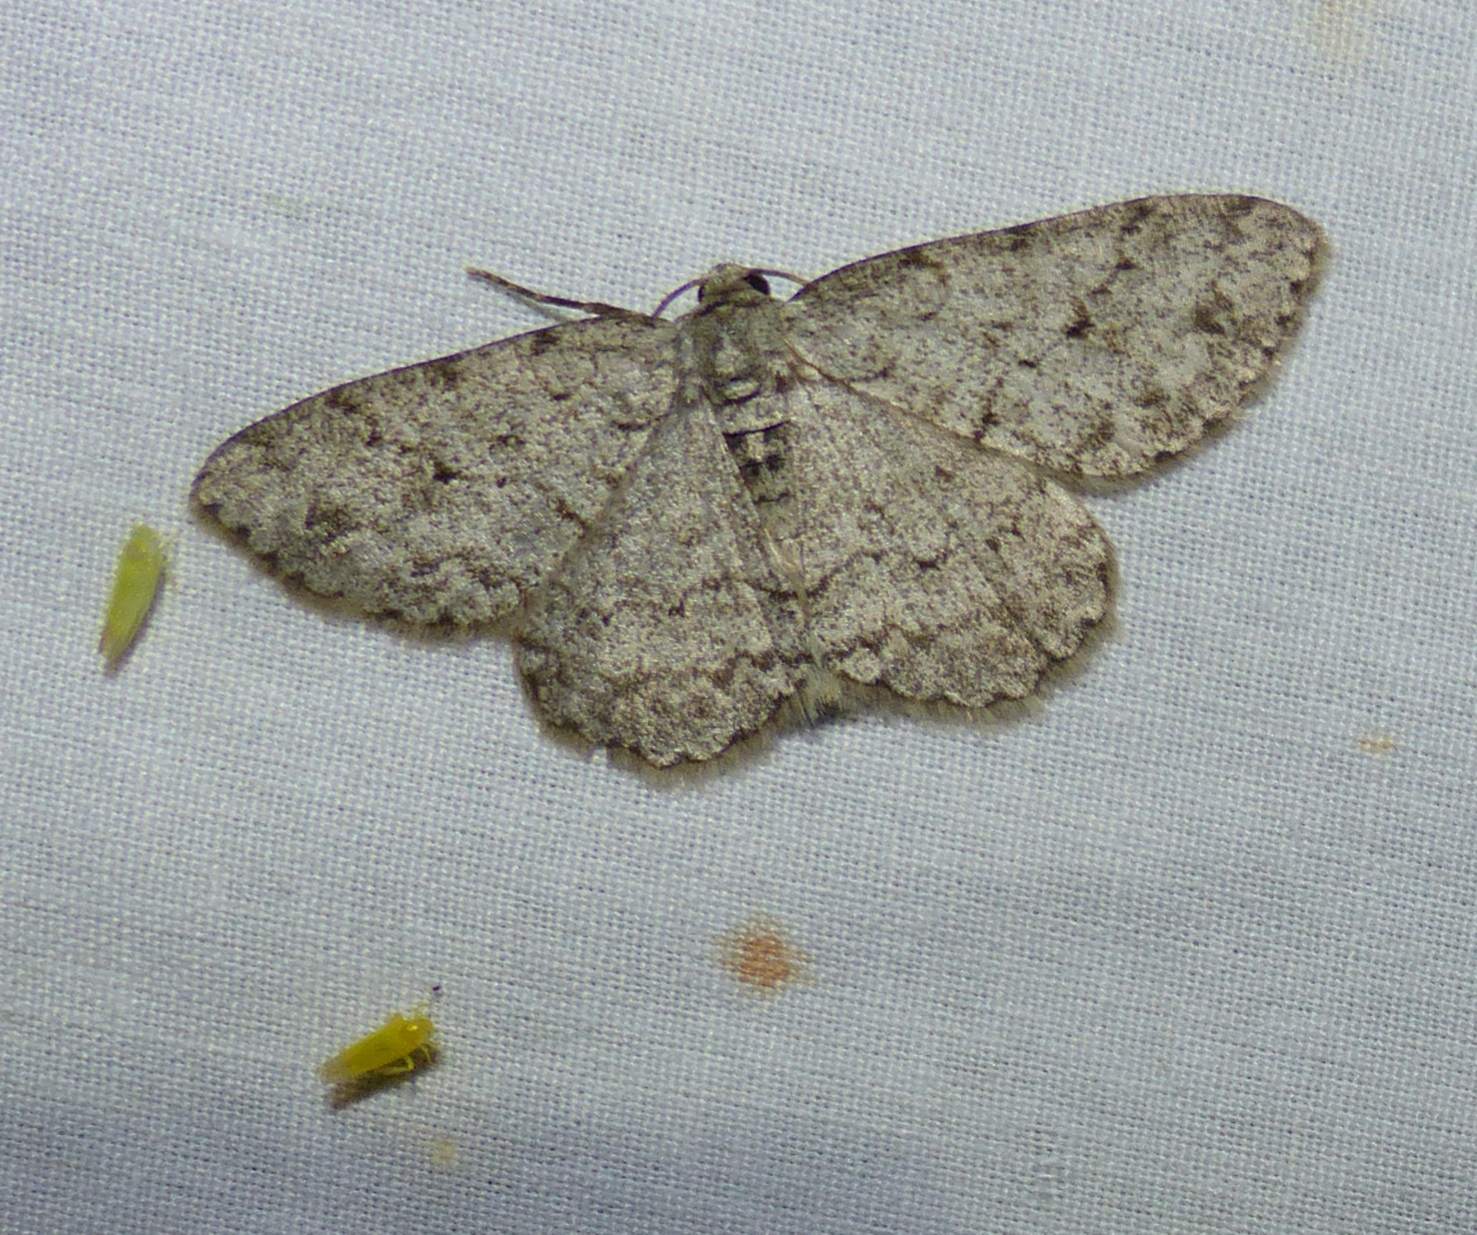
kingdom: Animalia
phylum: Arthropoda
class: Insecta
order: Lepidoptera
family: Geometridae
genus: Ectropis
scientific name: Ectropis crepuscularia
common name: Engrailed
